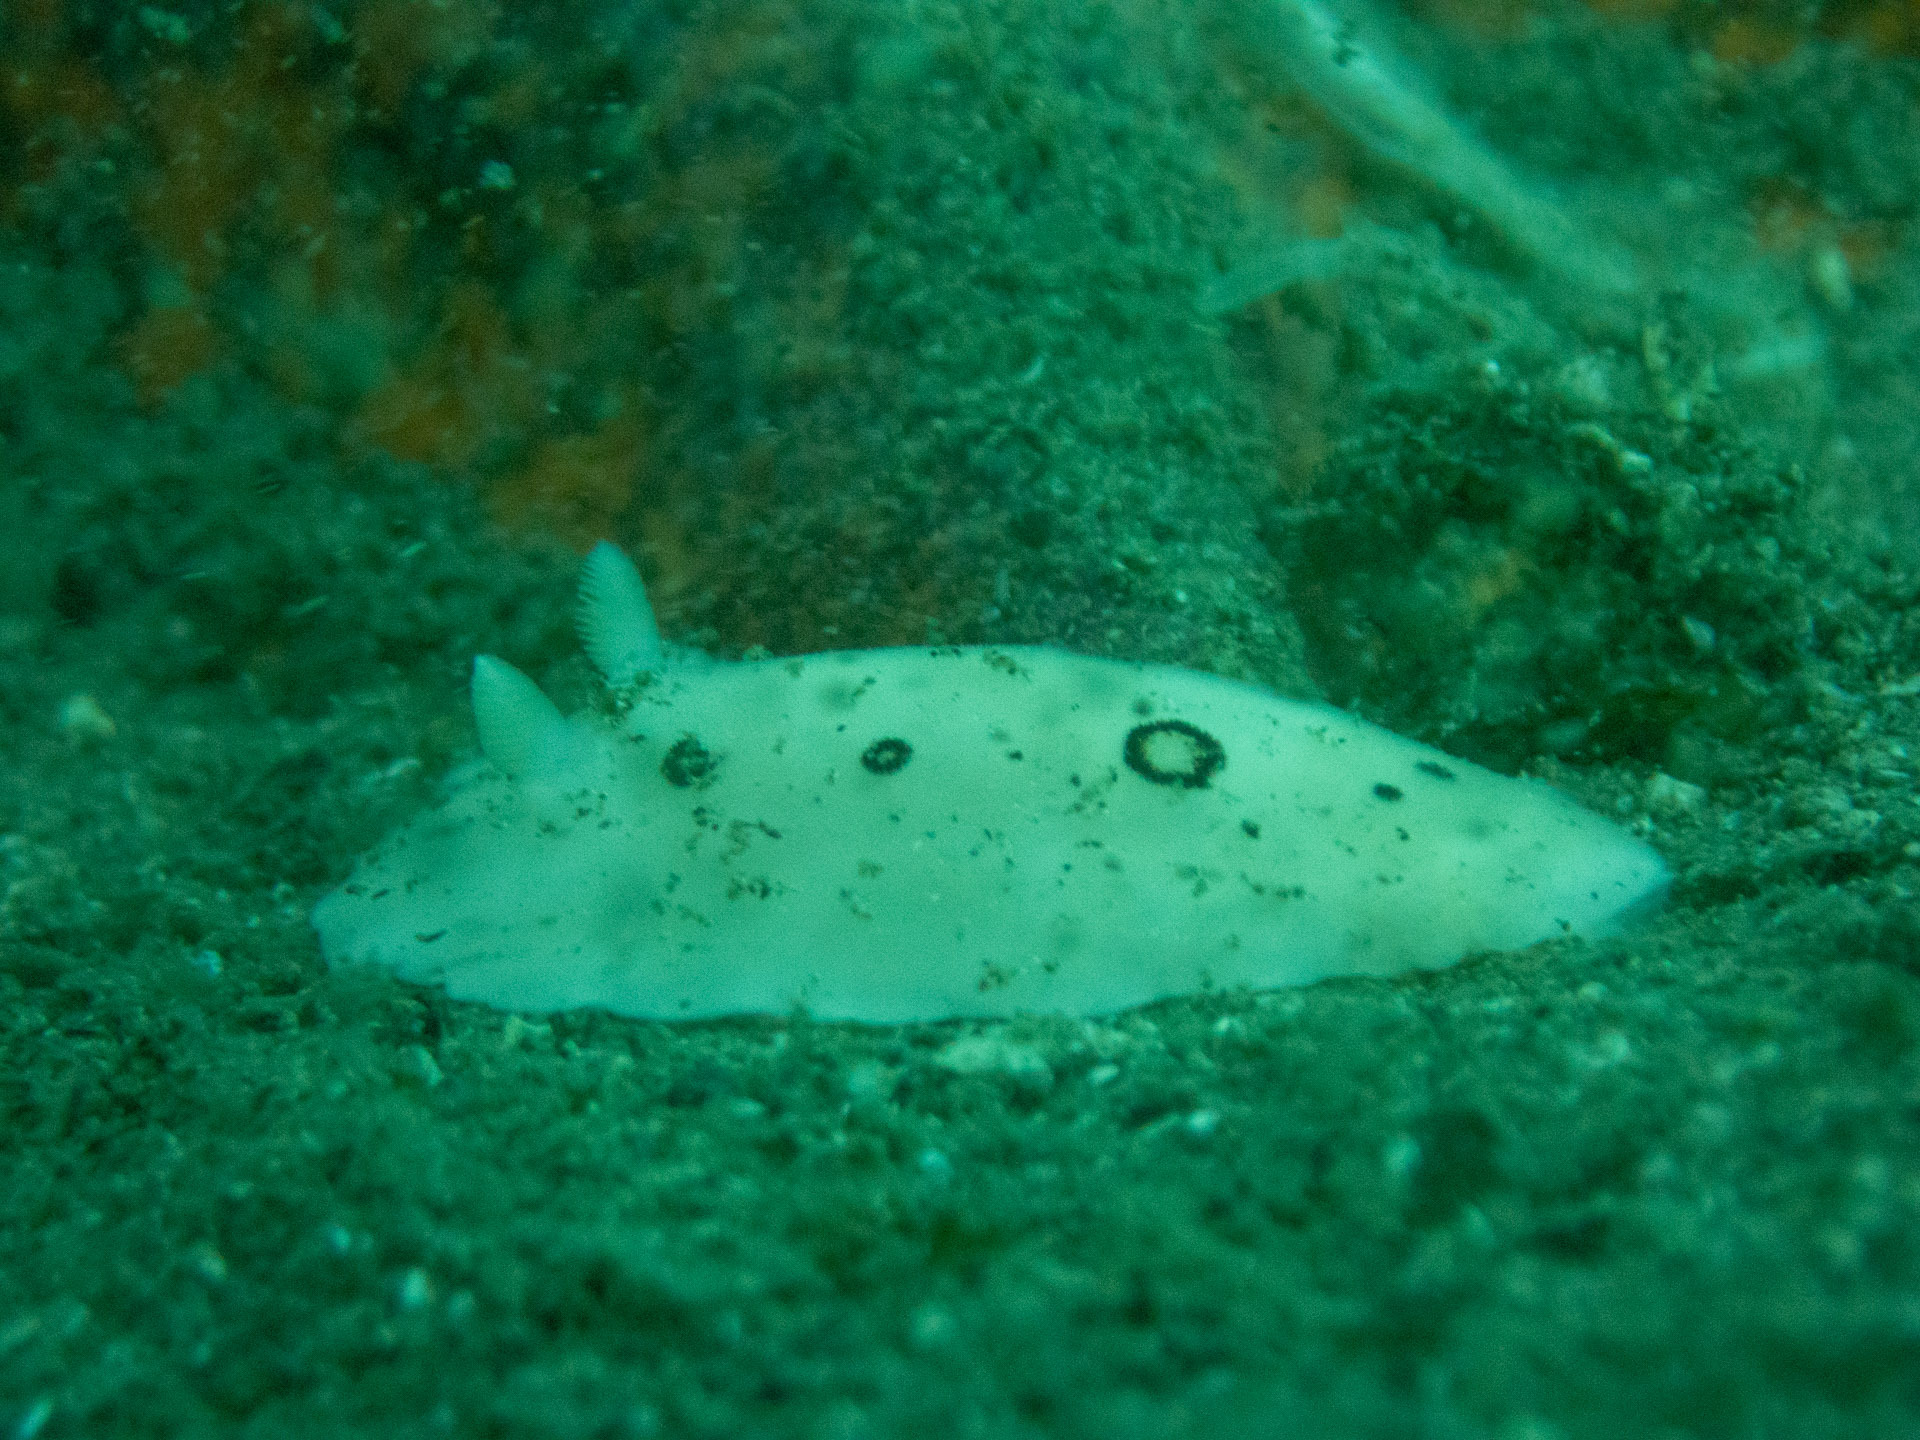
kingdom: Animalia
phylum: Mollusca
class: Gastropoda
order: Nudibranchia
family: Discodorididae
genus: Diaulula
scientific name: Diaulula sandiegensis
